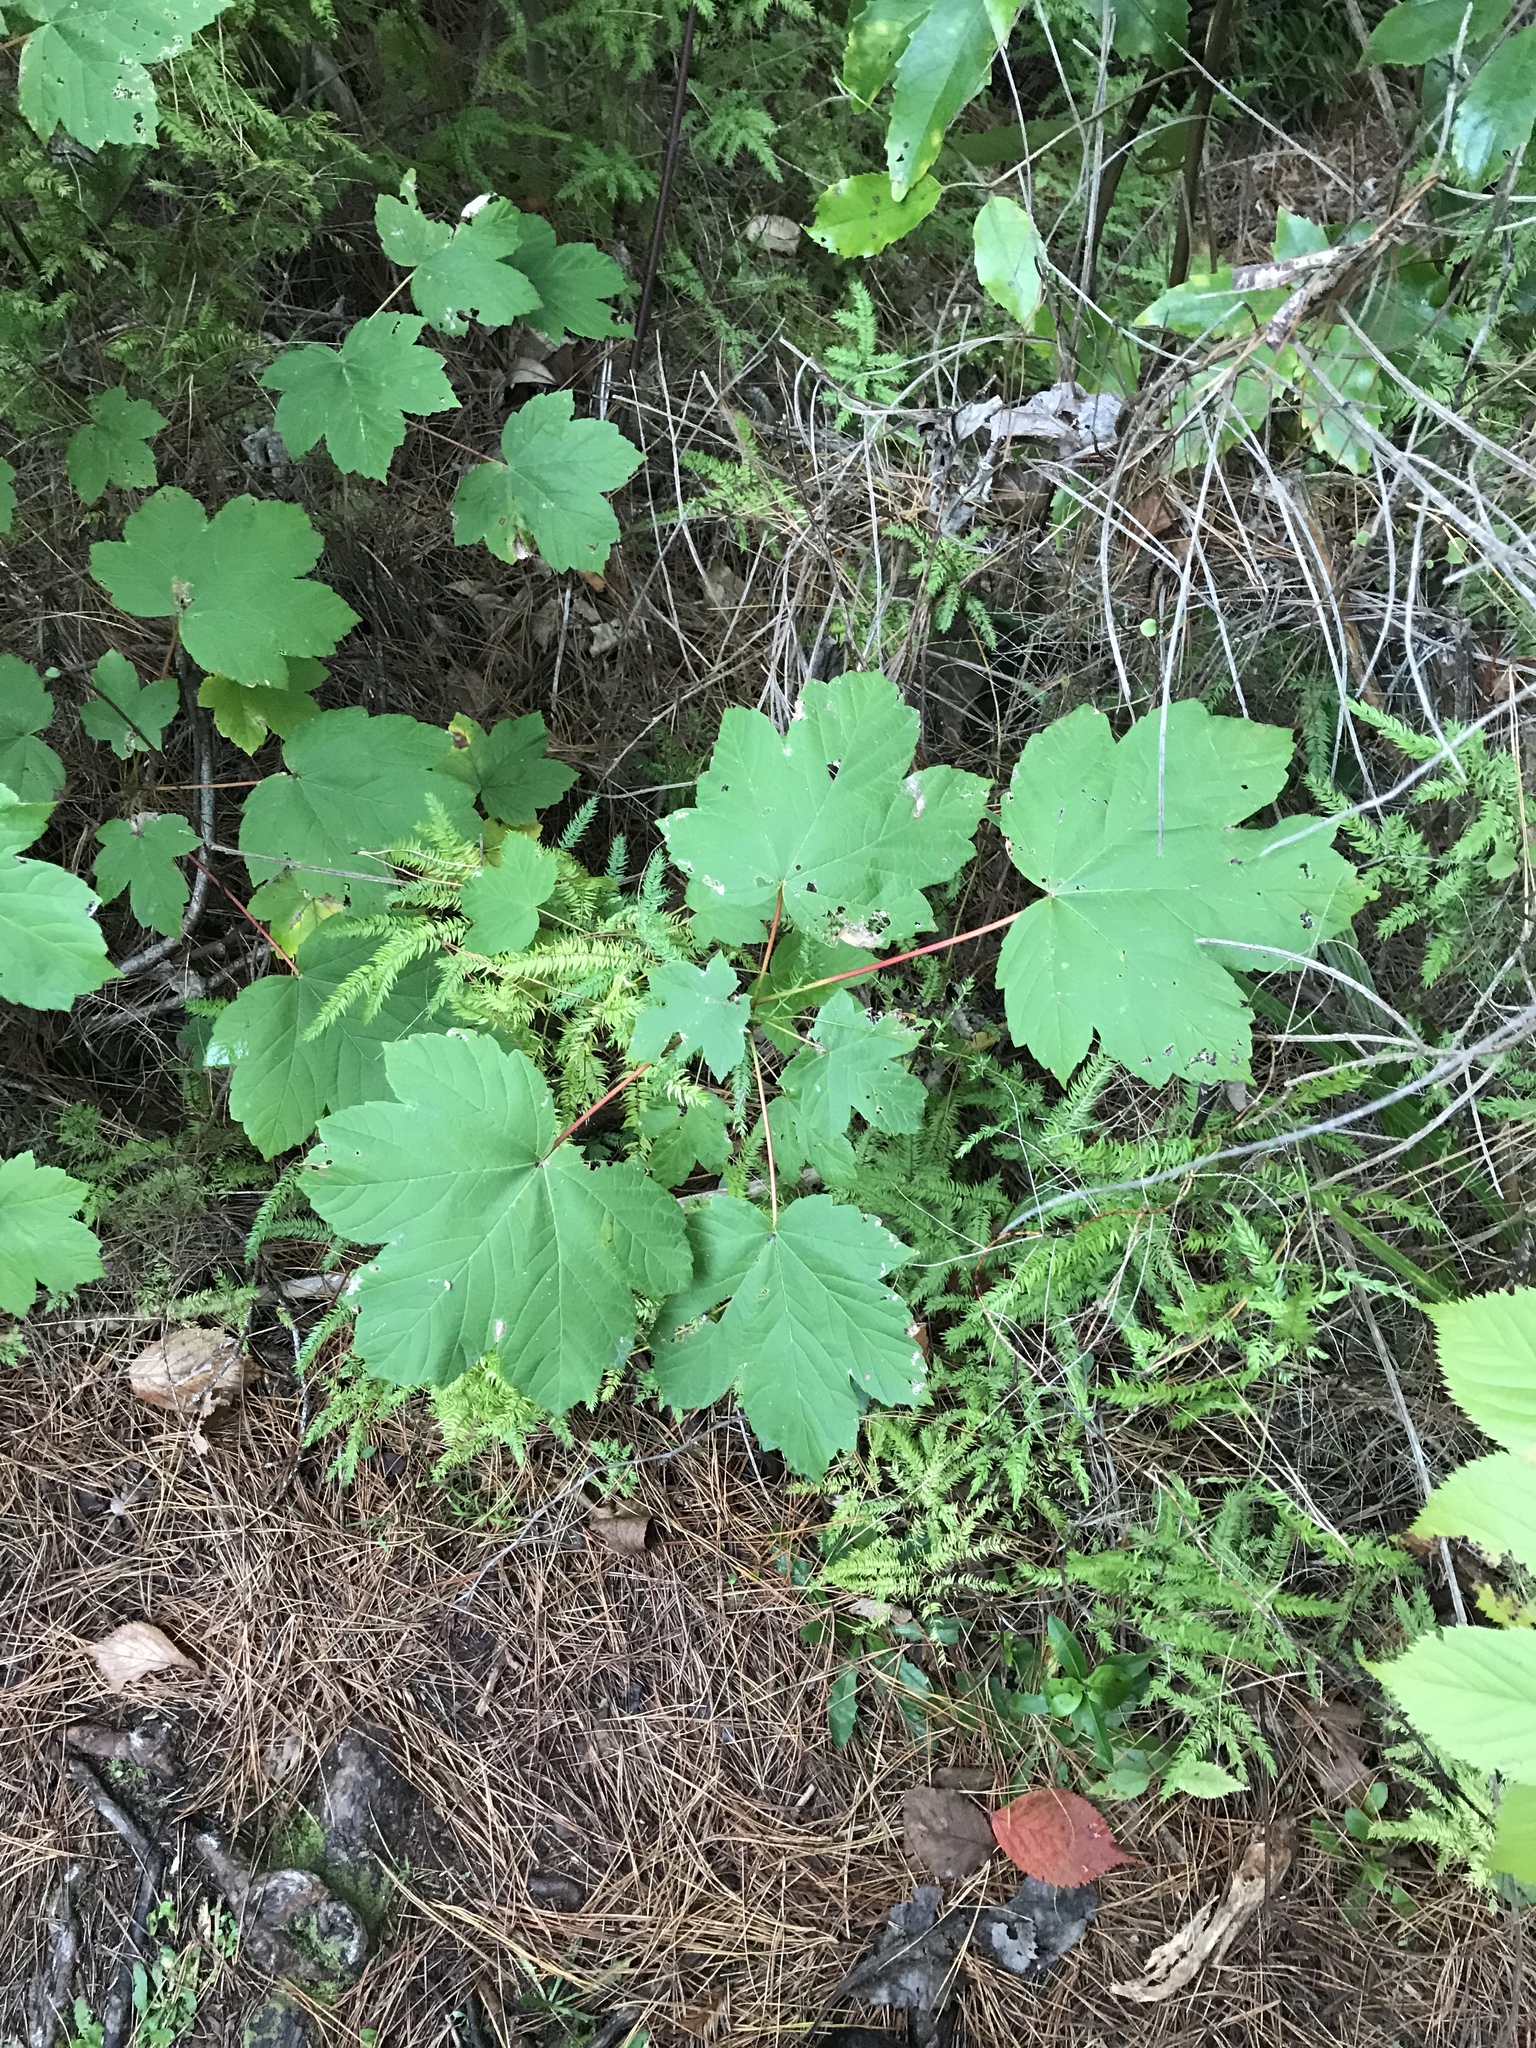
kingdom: Plantae
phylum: Tracheophyta
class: Magnoliopsida
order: Sapindales
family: Sapindaceae
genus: Acer
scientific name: Acer pseudoplatanus
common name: Sycamore
